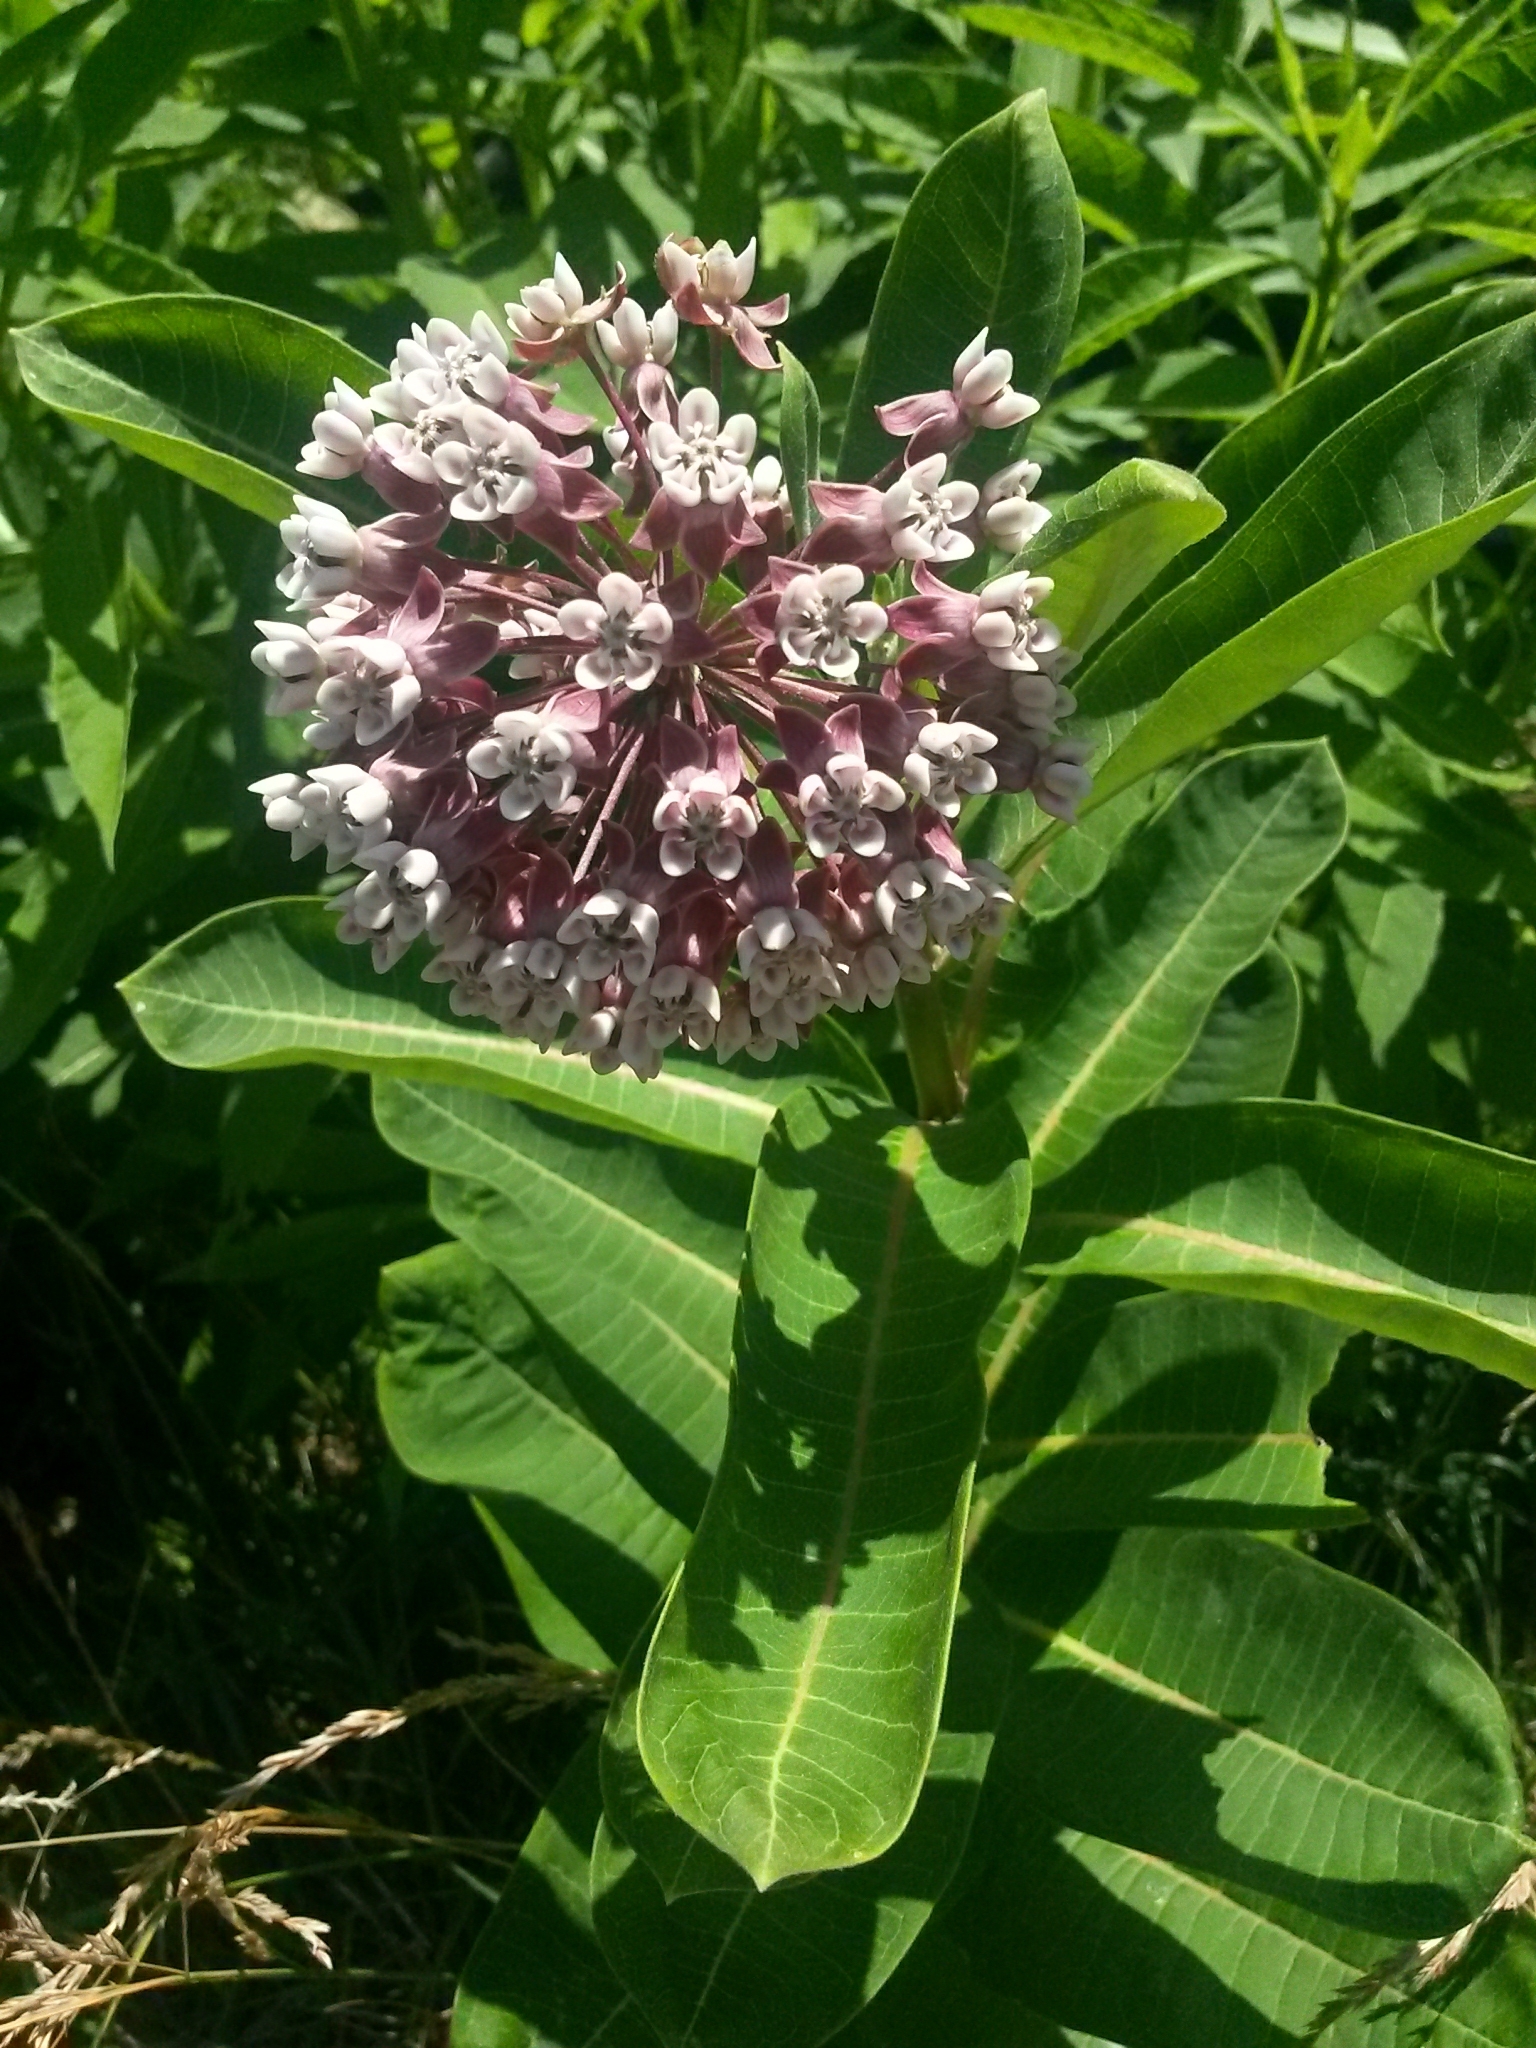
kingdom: Plantae
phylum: Tracheophyta
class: Magnoliopsida
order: Gentianales
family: Apocynaceae
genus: Asclepias
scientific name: Asclepias syriaca
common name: Common milkweed
